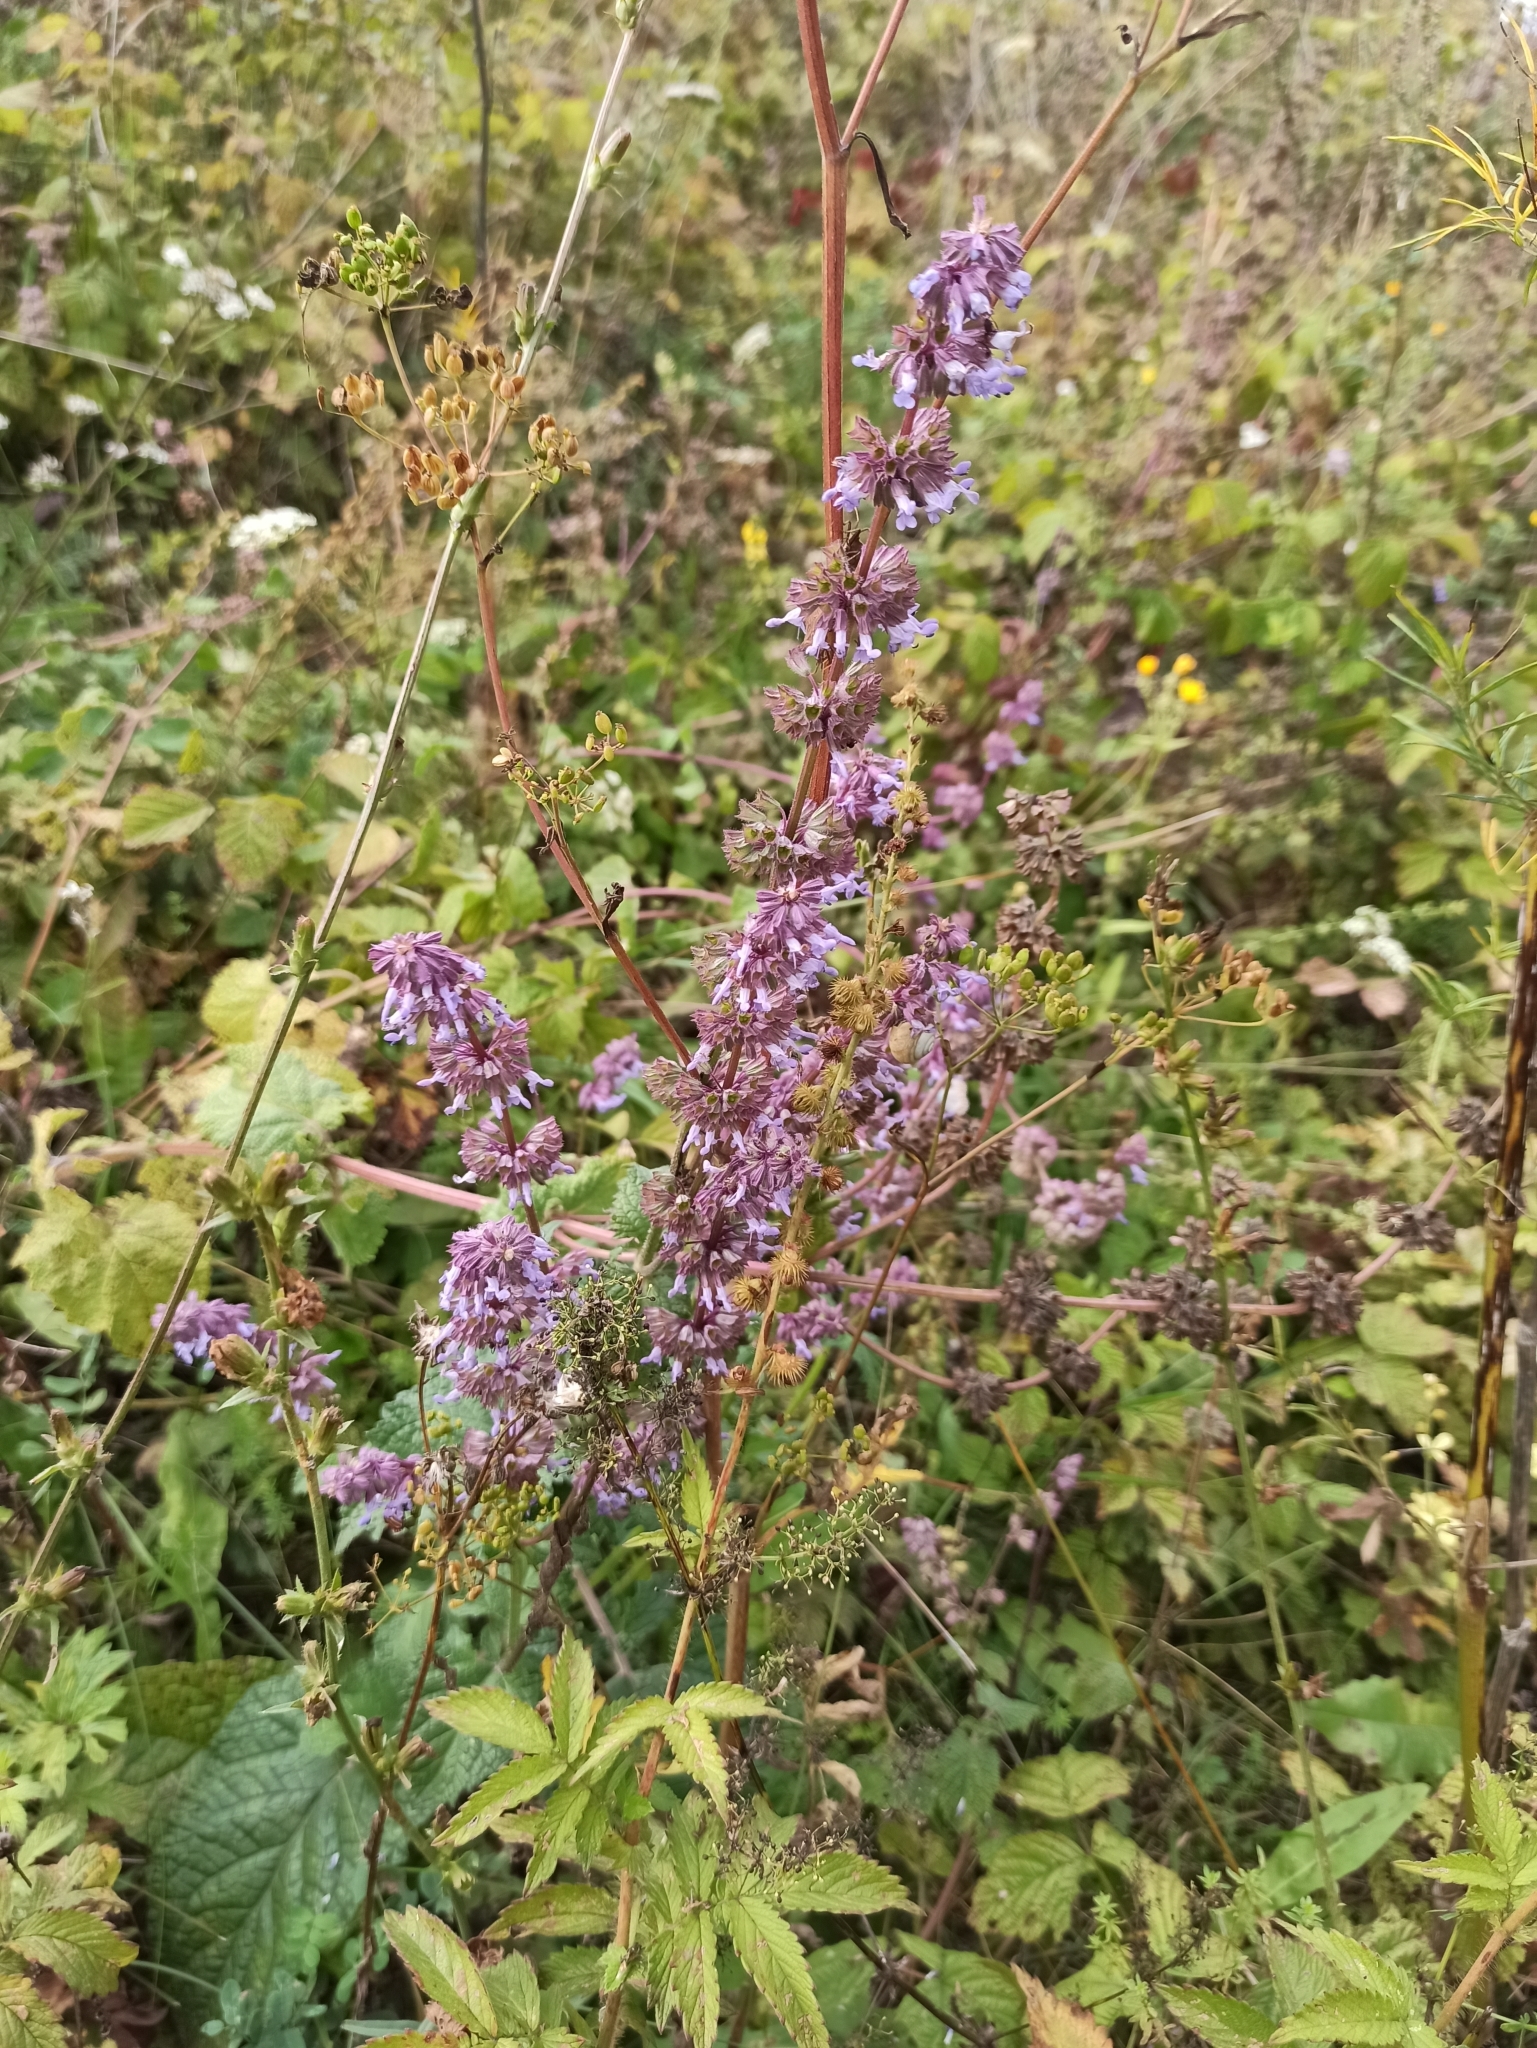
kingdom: Plantae
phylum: Tracheophyta
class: Magnoliopsida
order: Lamiales
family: Lamiaceae
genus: Salvia
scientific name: Salvia verticillata
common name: Whorled clary
